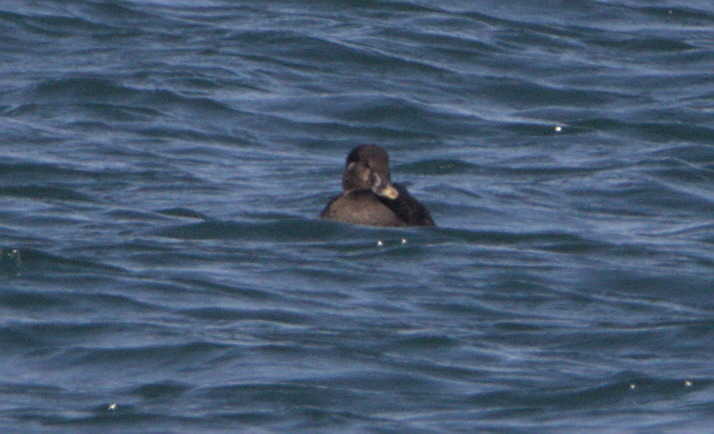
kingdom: Animalia
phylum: Chordata
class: Aves
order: Anseriformes
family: Anatidae
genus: Melanitta
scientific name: Melanitta perspicillata
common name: Surf scoter
